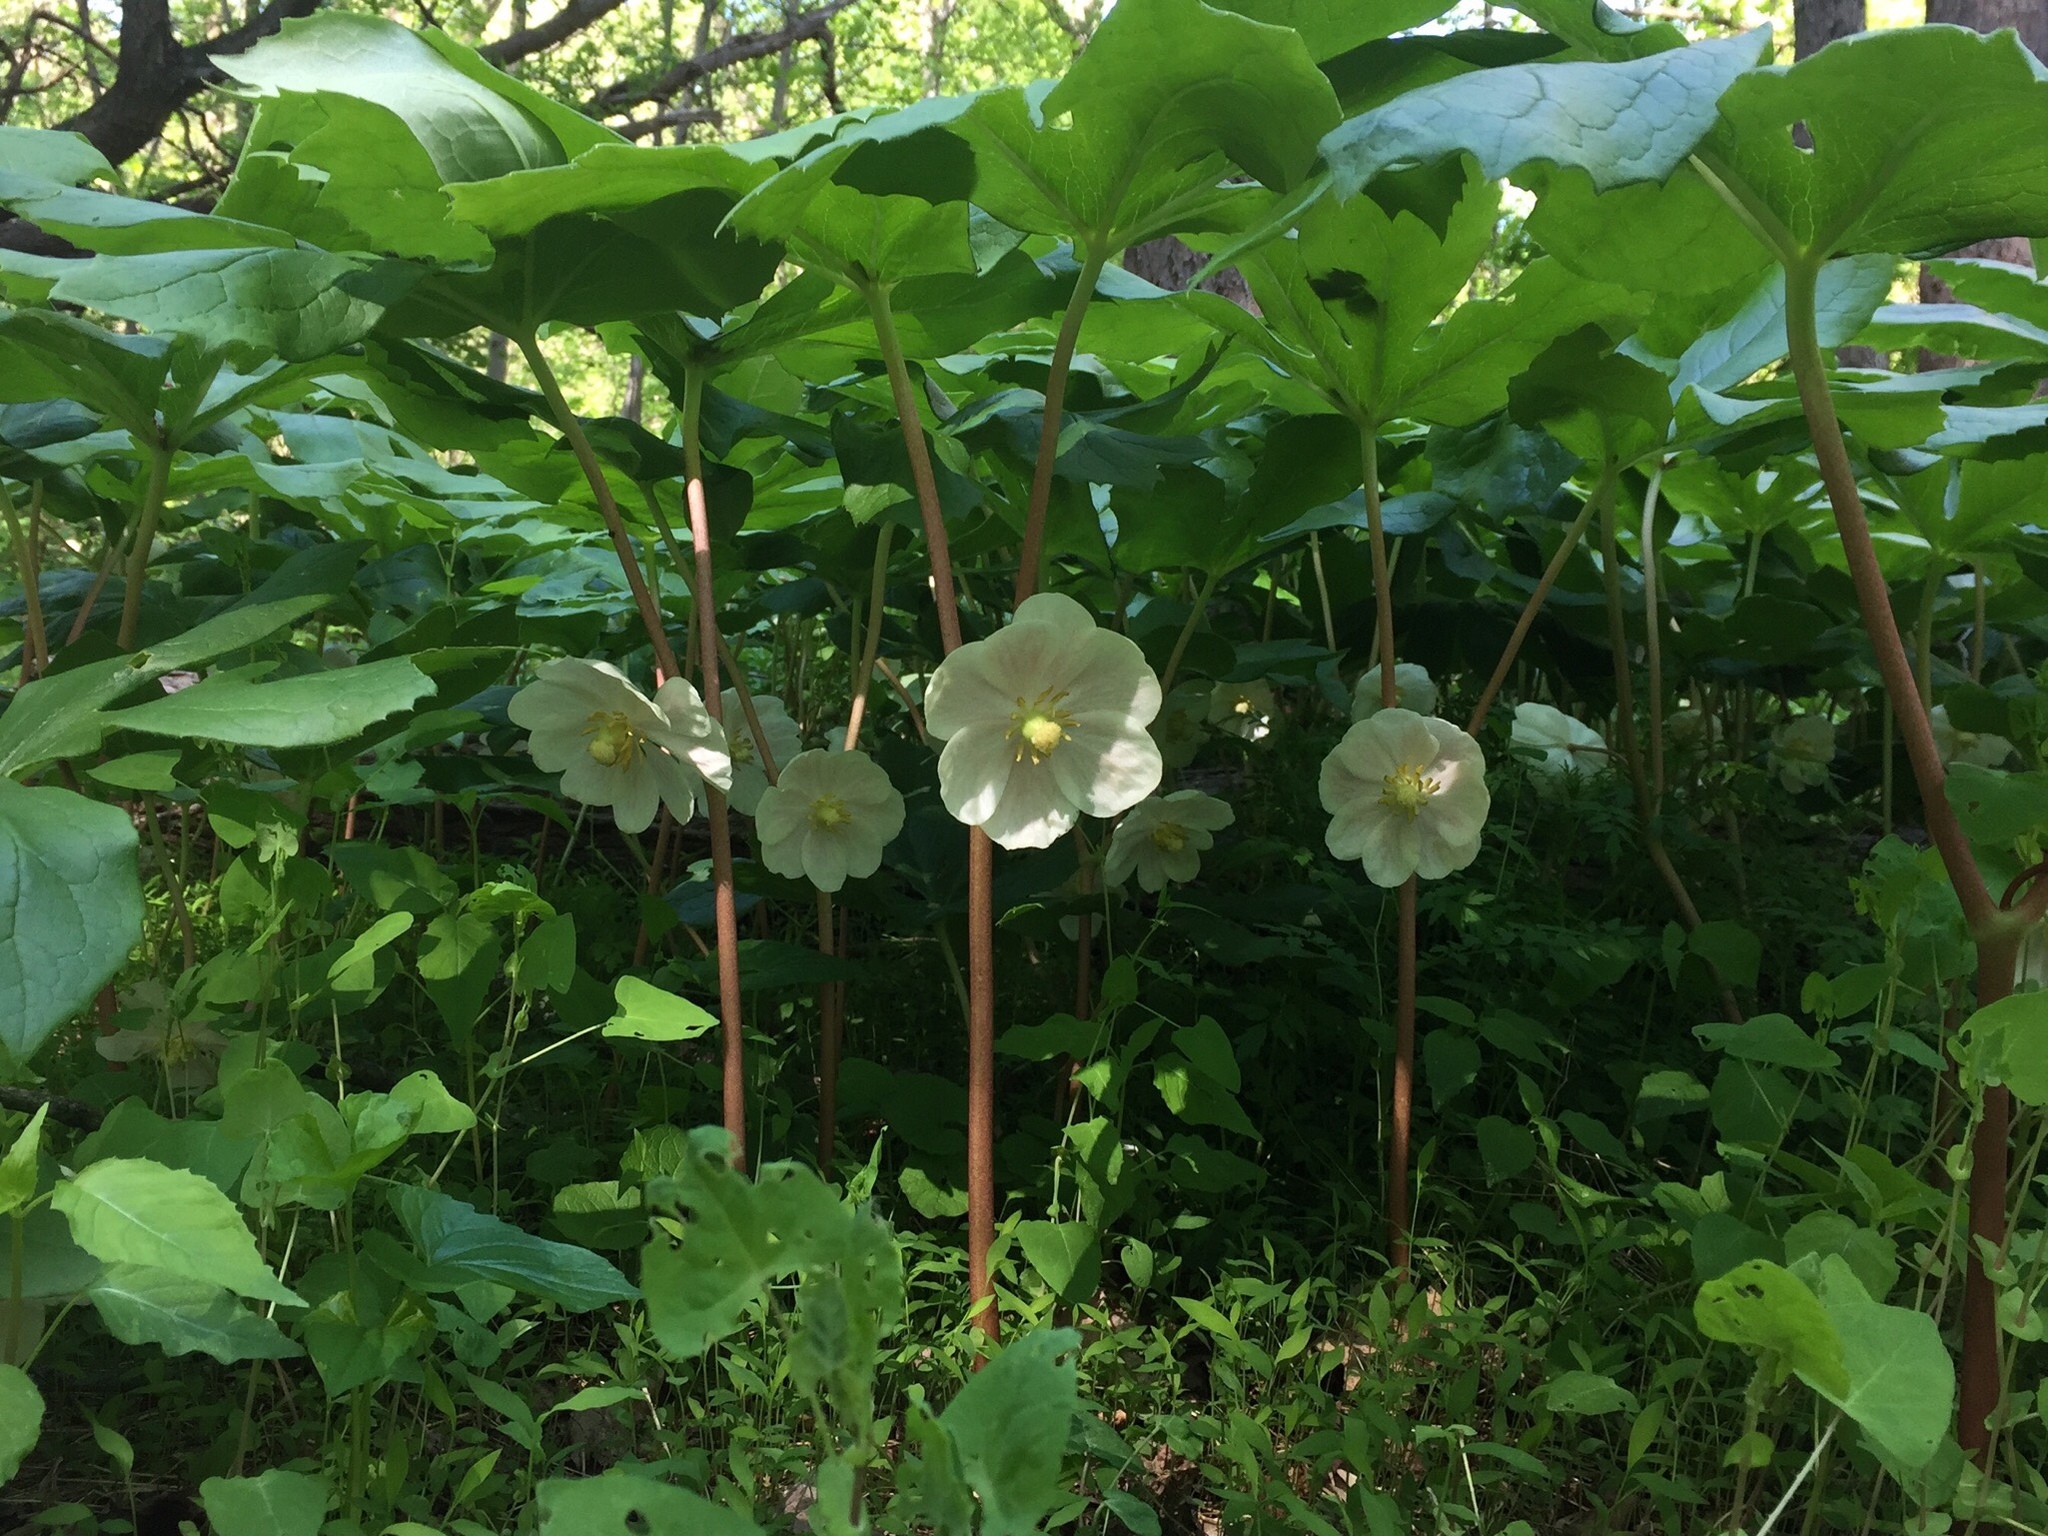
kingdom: Plantae
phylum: Tracheophyta
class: Magnoliopsida
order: Ranunculales
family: Berberidaceae
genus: Podophyllum
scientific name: Podophyllum peltatum
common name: Wild mandrake
